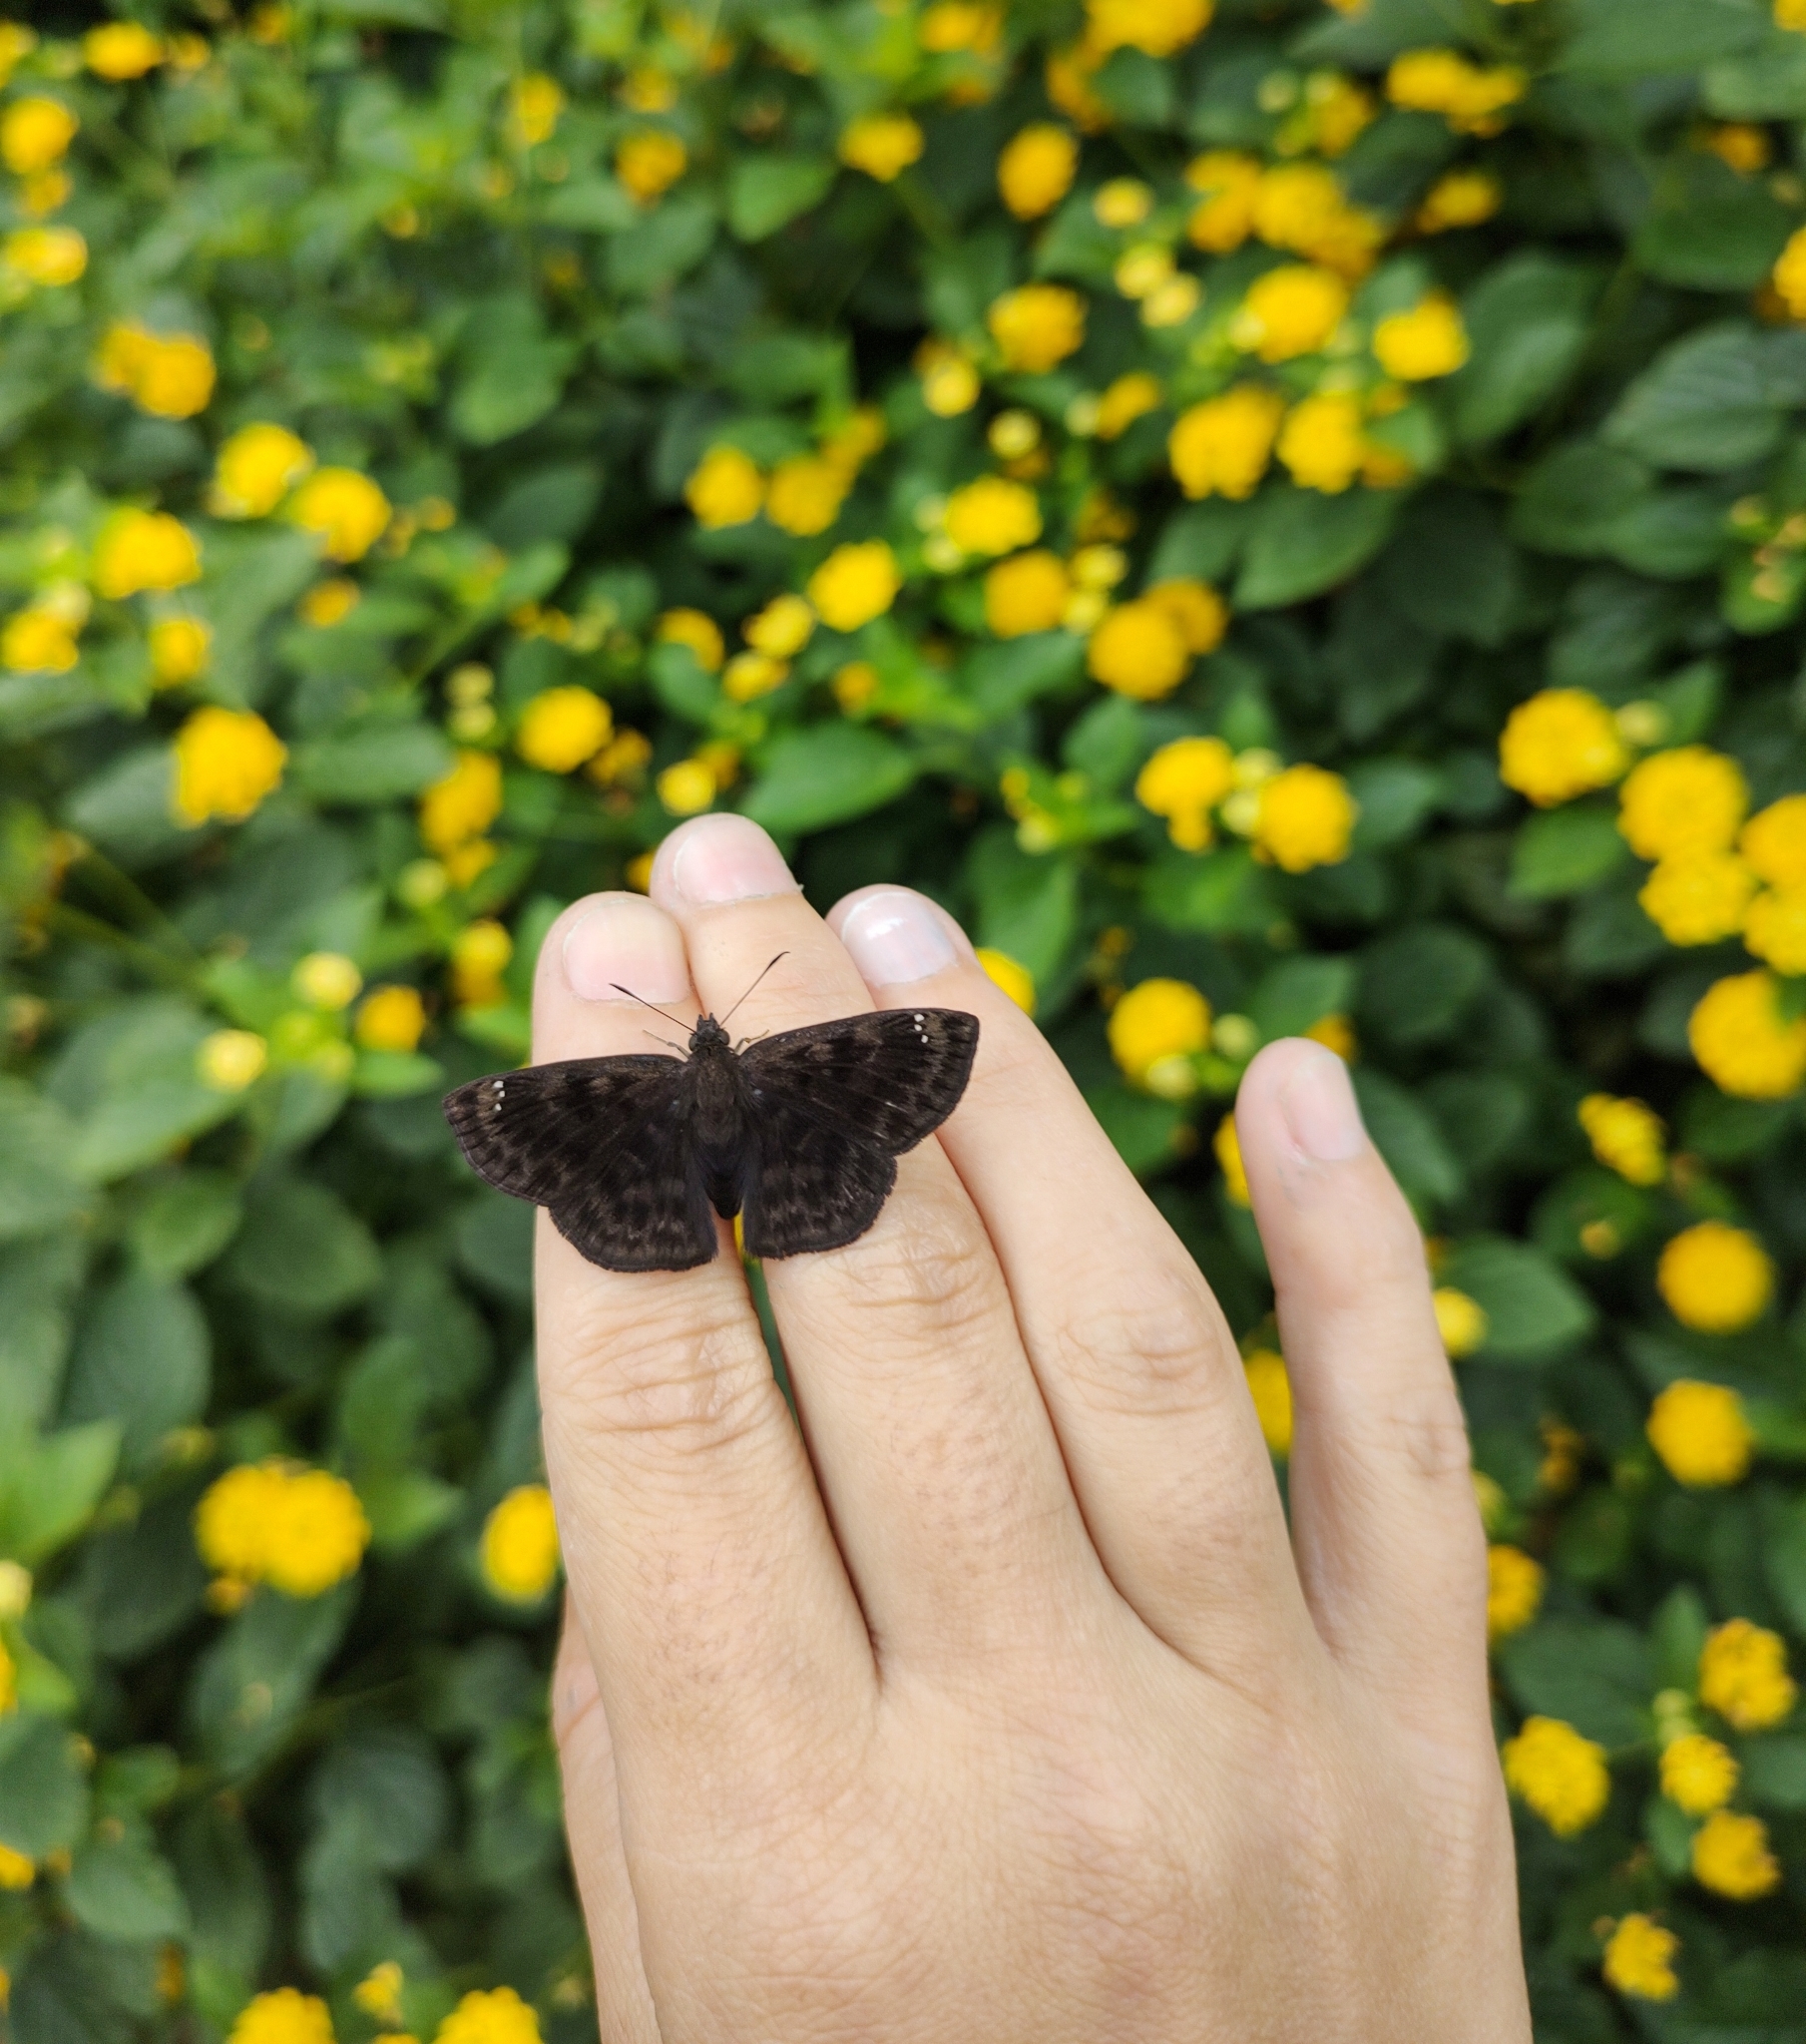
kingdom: Animalia
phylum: Arthropoda
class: Insecta
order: Lepidoptera
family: Hesperiidae
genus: Nisoniades
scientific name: Nisoniades castolus
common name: Castolus tufted-skipper
